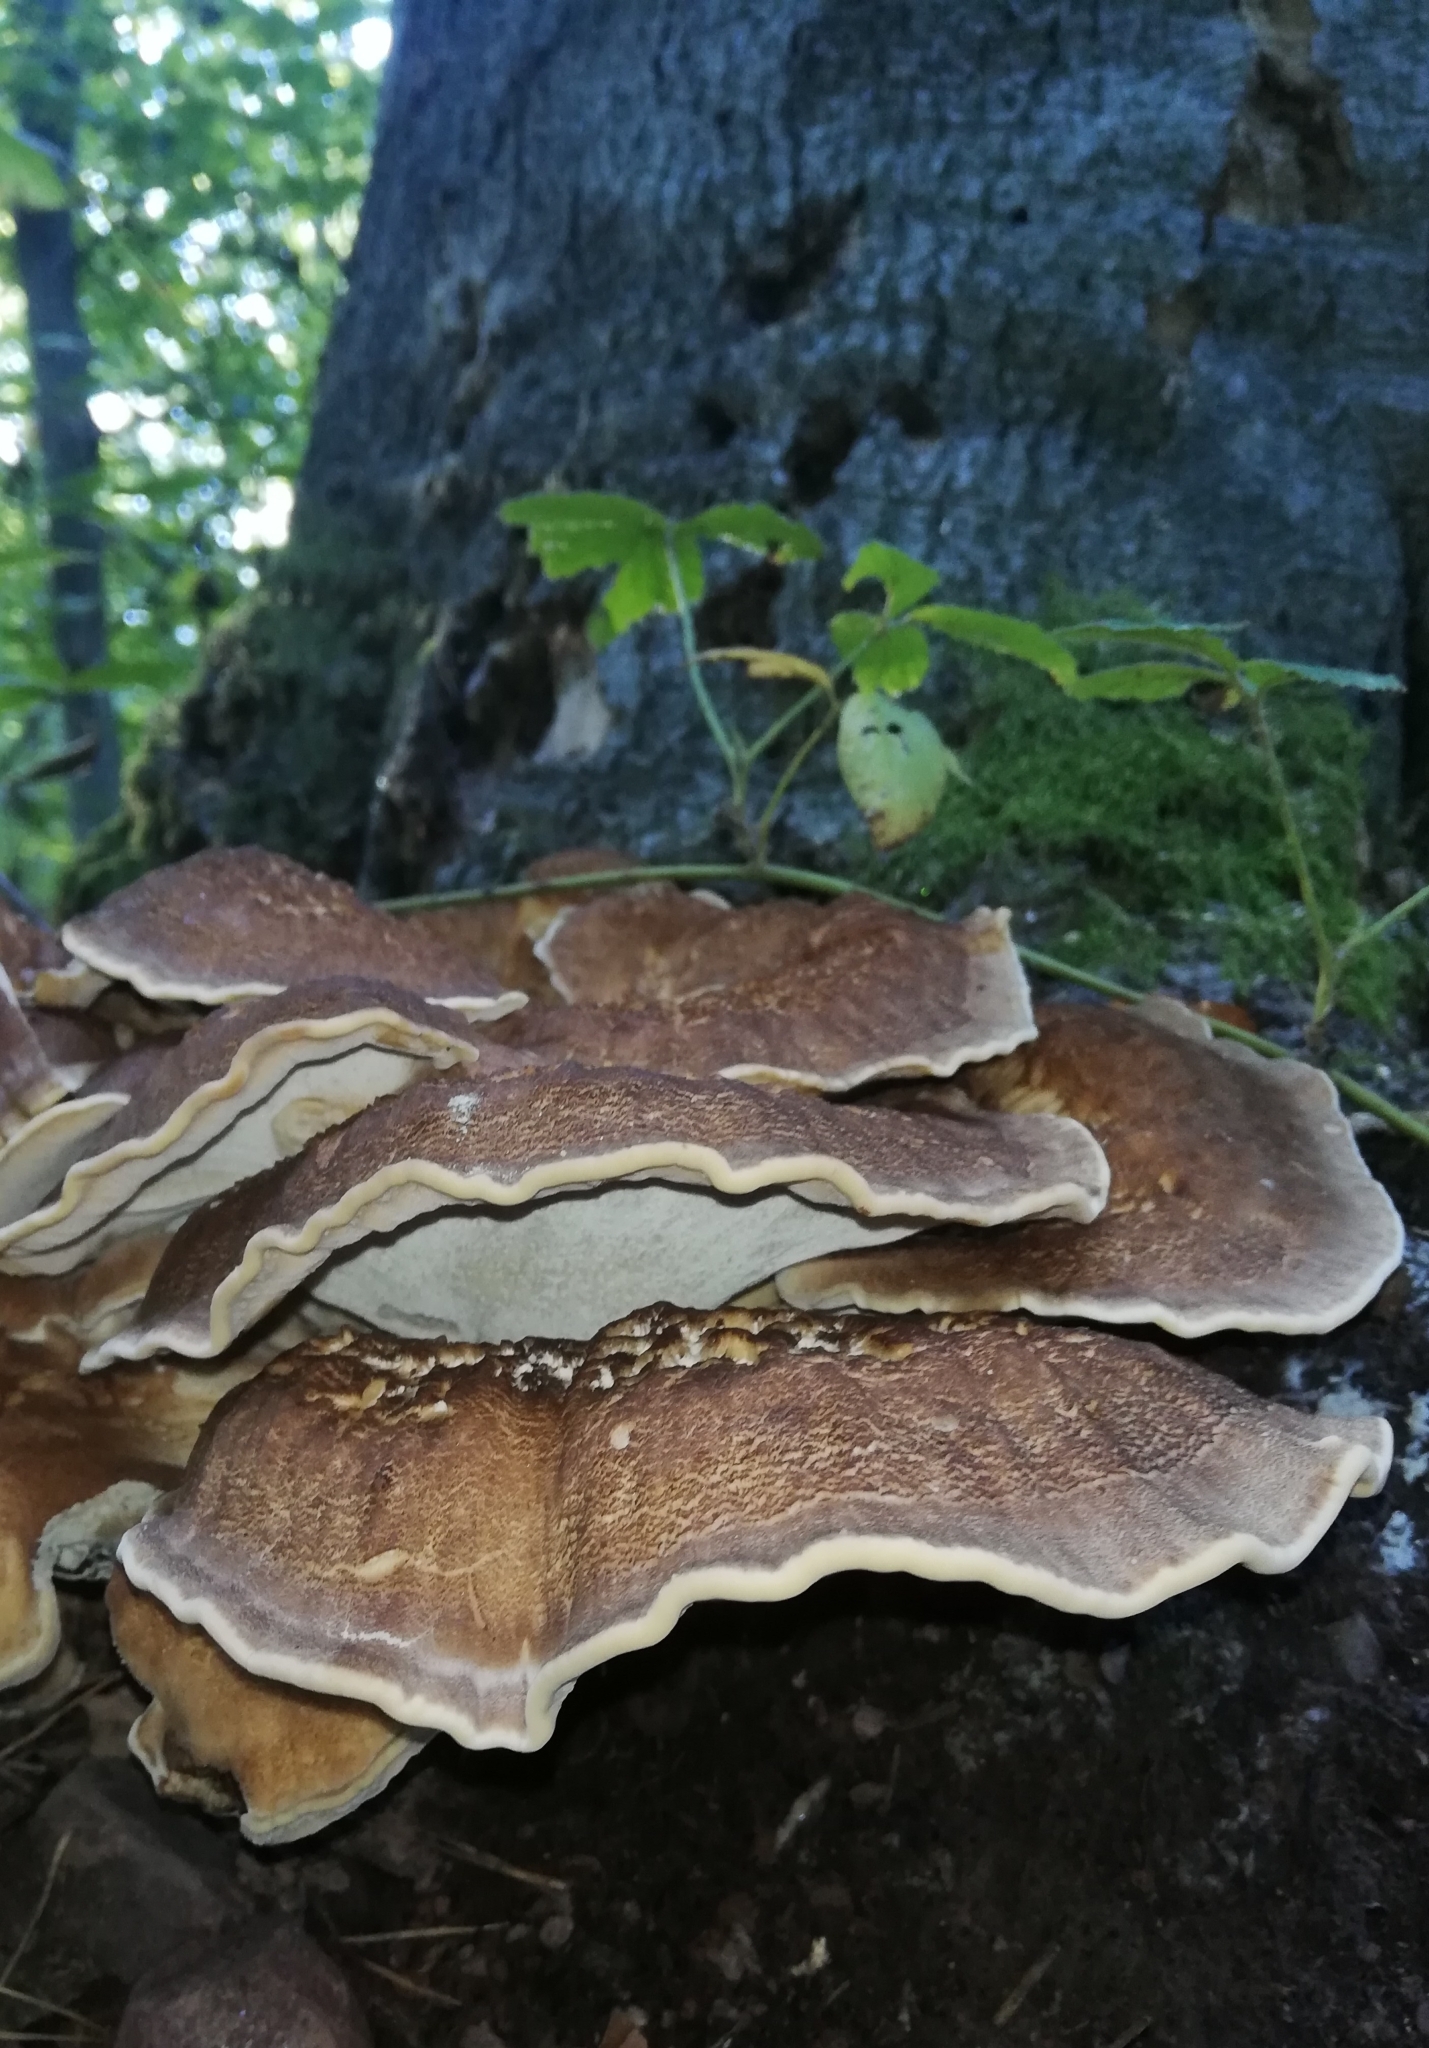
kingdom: Fungi
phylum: Basidiomycota
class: Agaricomycetes
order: Polyporales
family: Meripilaceae
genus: Meripilus
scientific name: Meripilus giganteus
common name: Giant polypore
